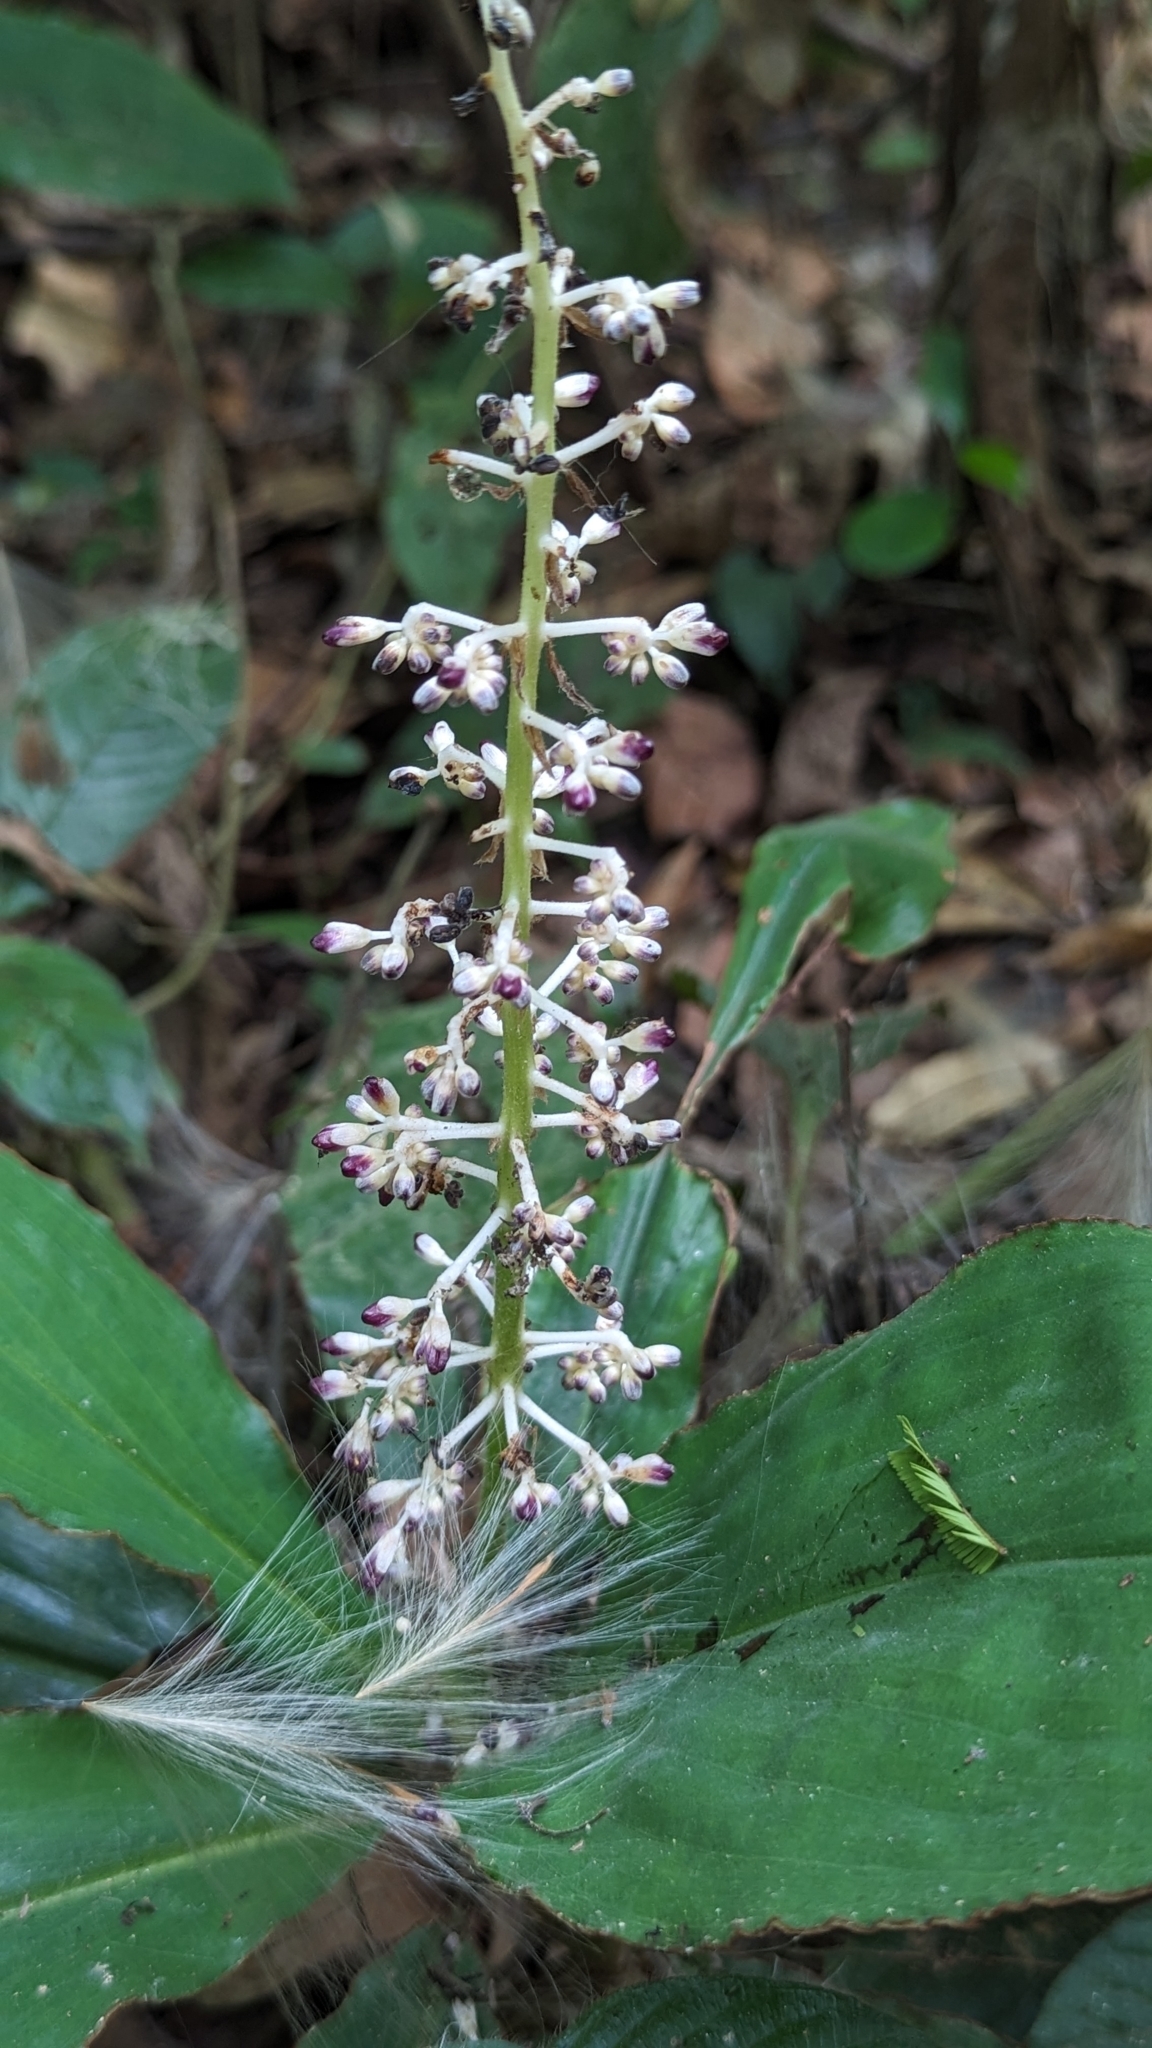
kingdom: Plantae
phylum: Tracheophyta
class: Liliopsida
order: Commelinales
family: Commelinaceae
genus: Palisota
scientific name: Palisota hirsuta
